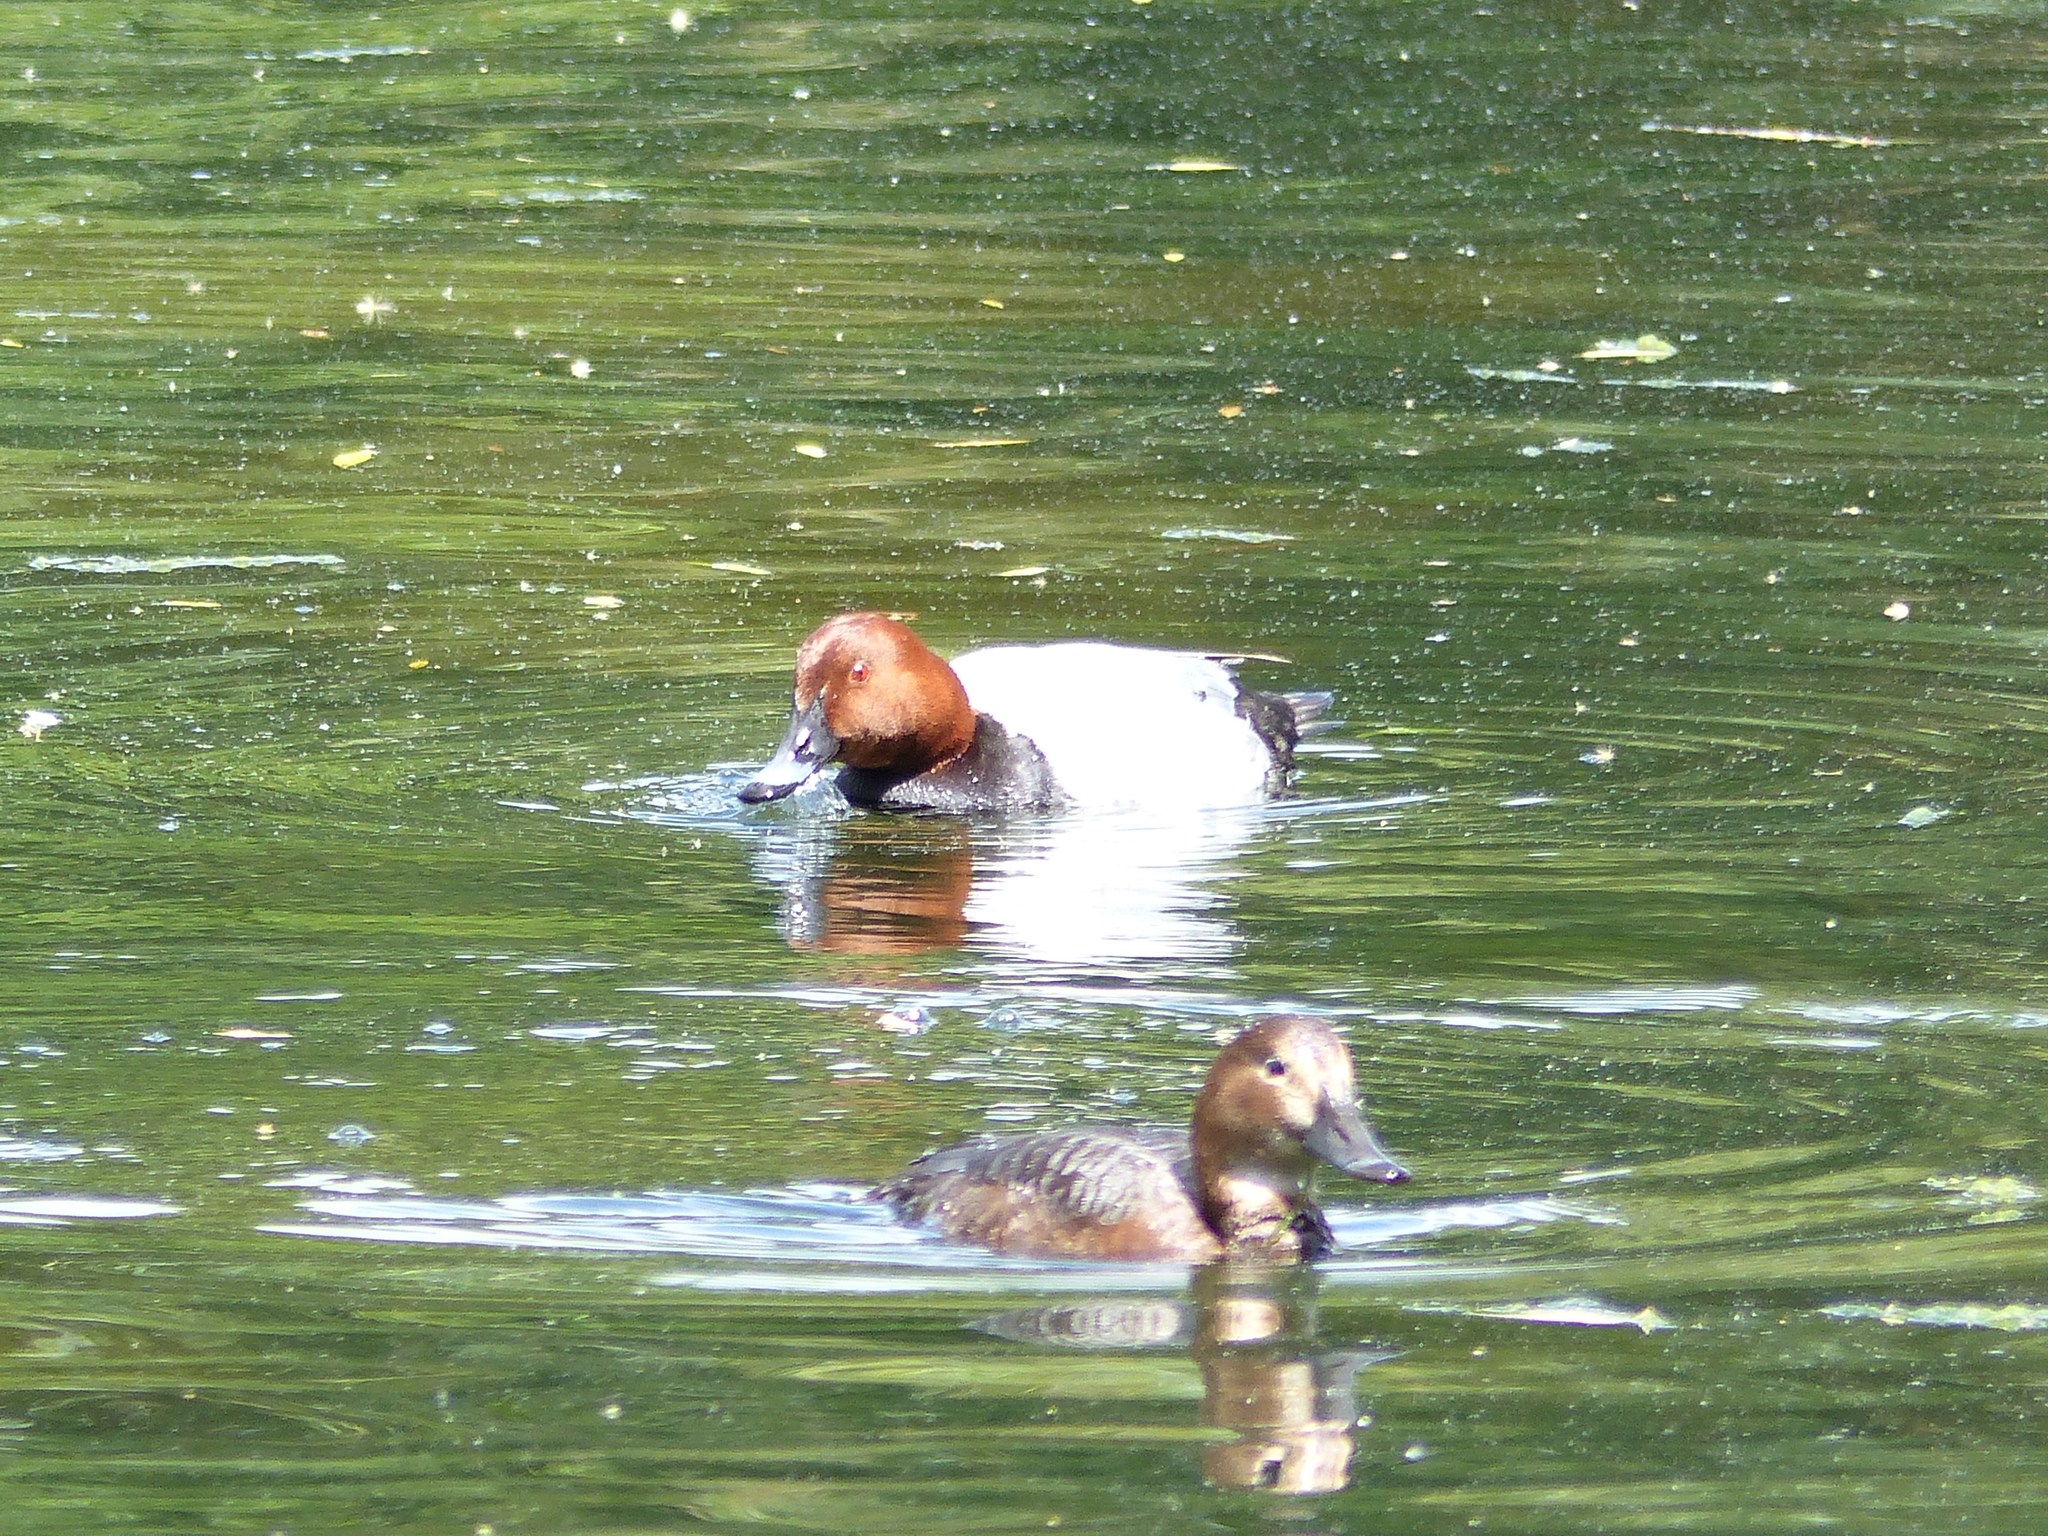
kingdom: Animalia
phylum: Chordata
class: Aves
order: Anseriformes
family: Anatidae
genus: Aythya
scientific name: Aythya ferina
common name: Common pochard
